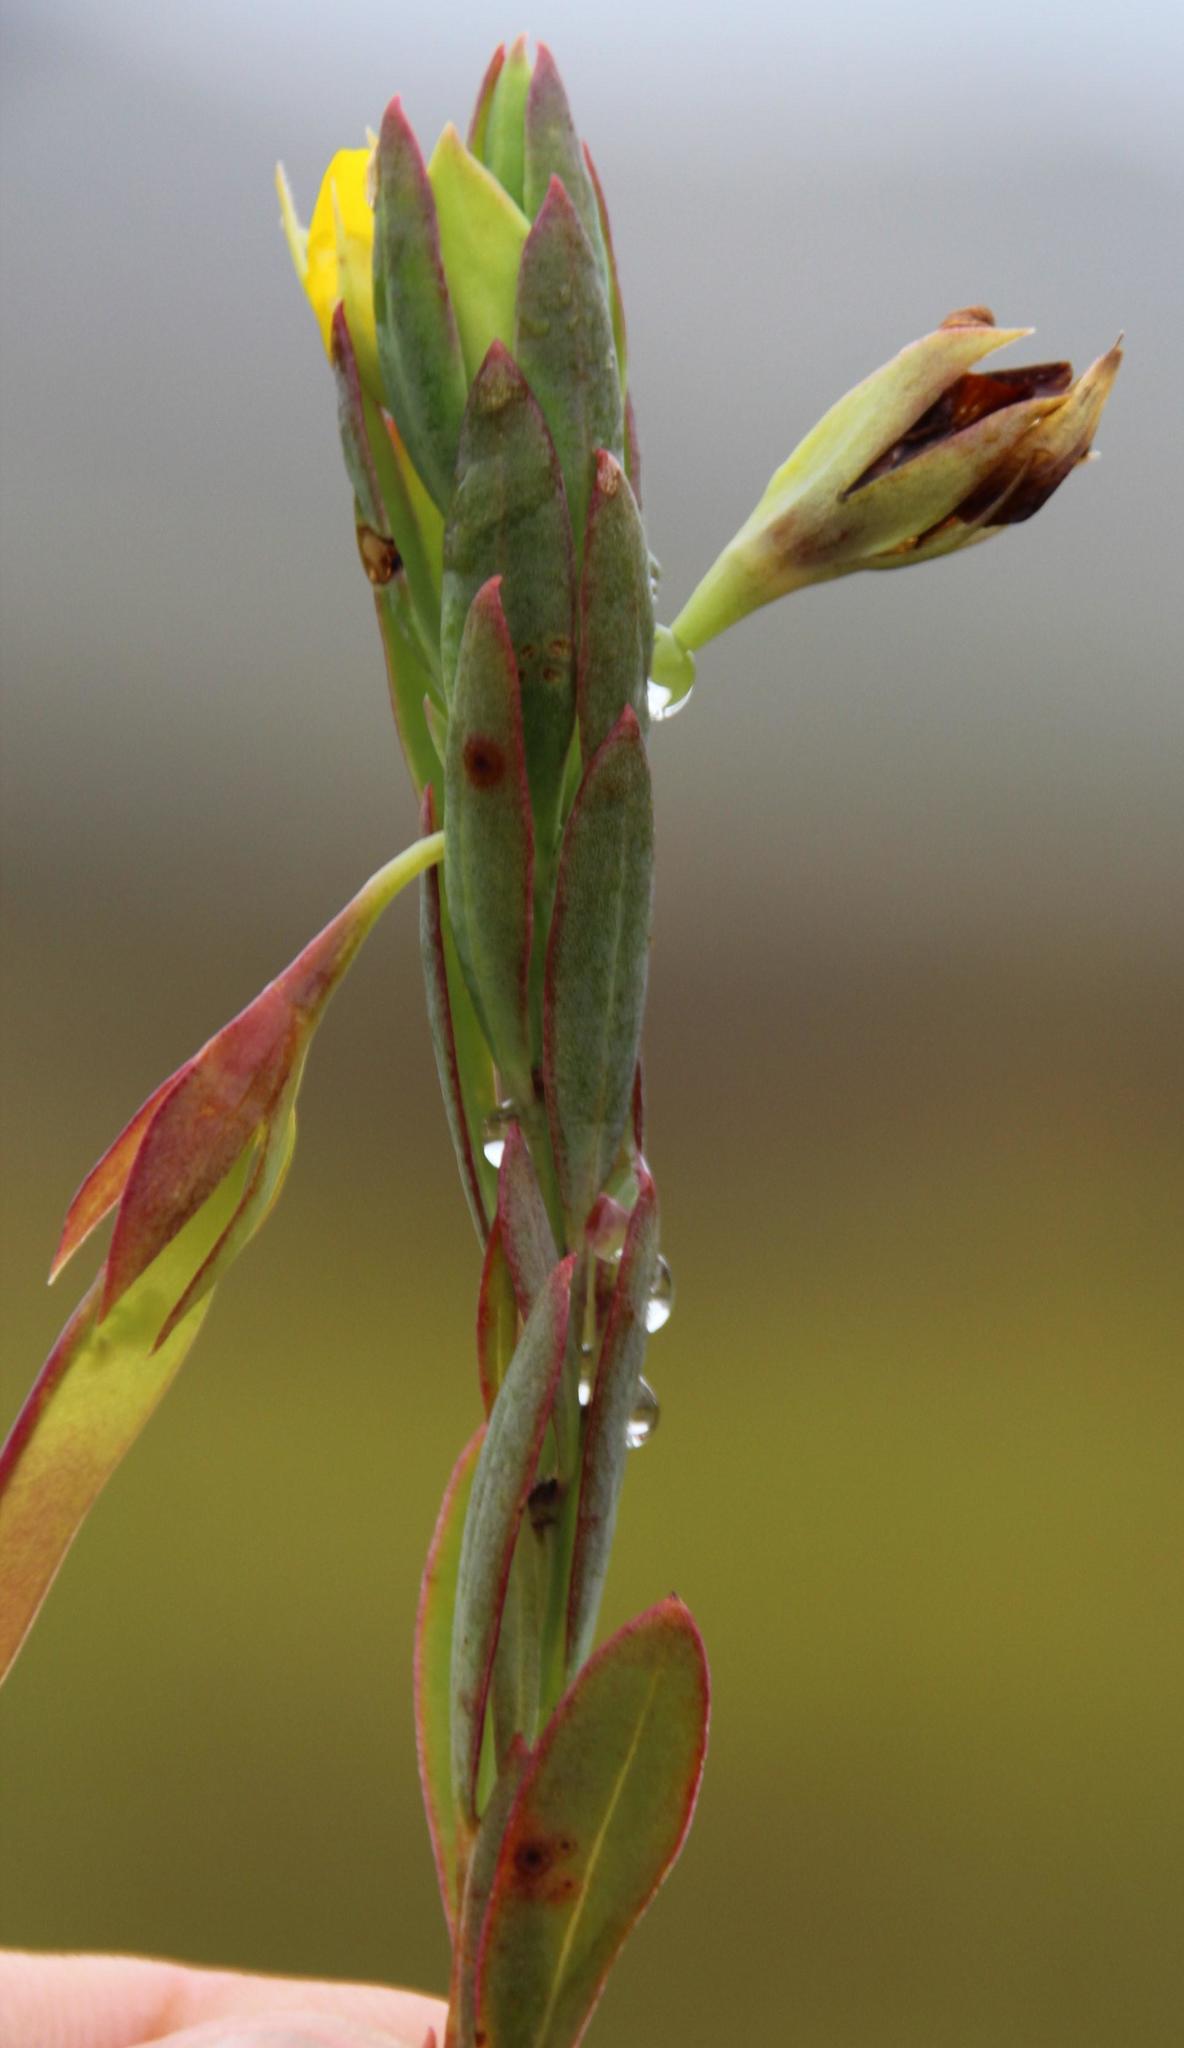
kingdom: Plantae
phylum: Tracheophyta
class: Magnoliopsida
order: Fabales
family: Fabaceae
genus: Rafnia
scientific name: Rafnia crassifolia
